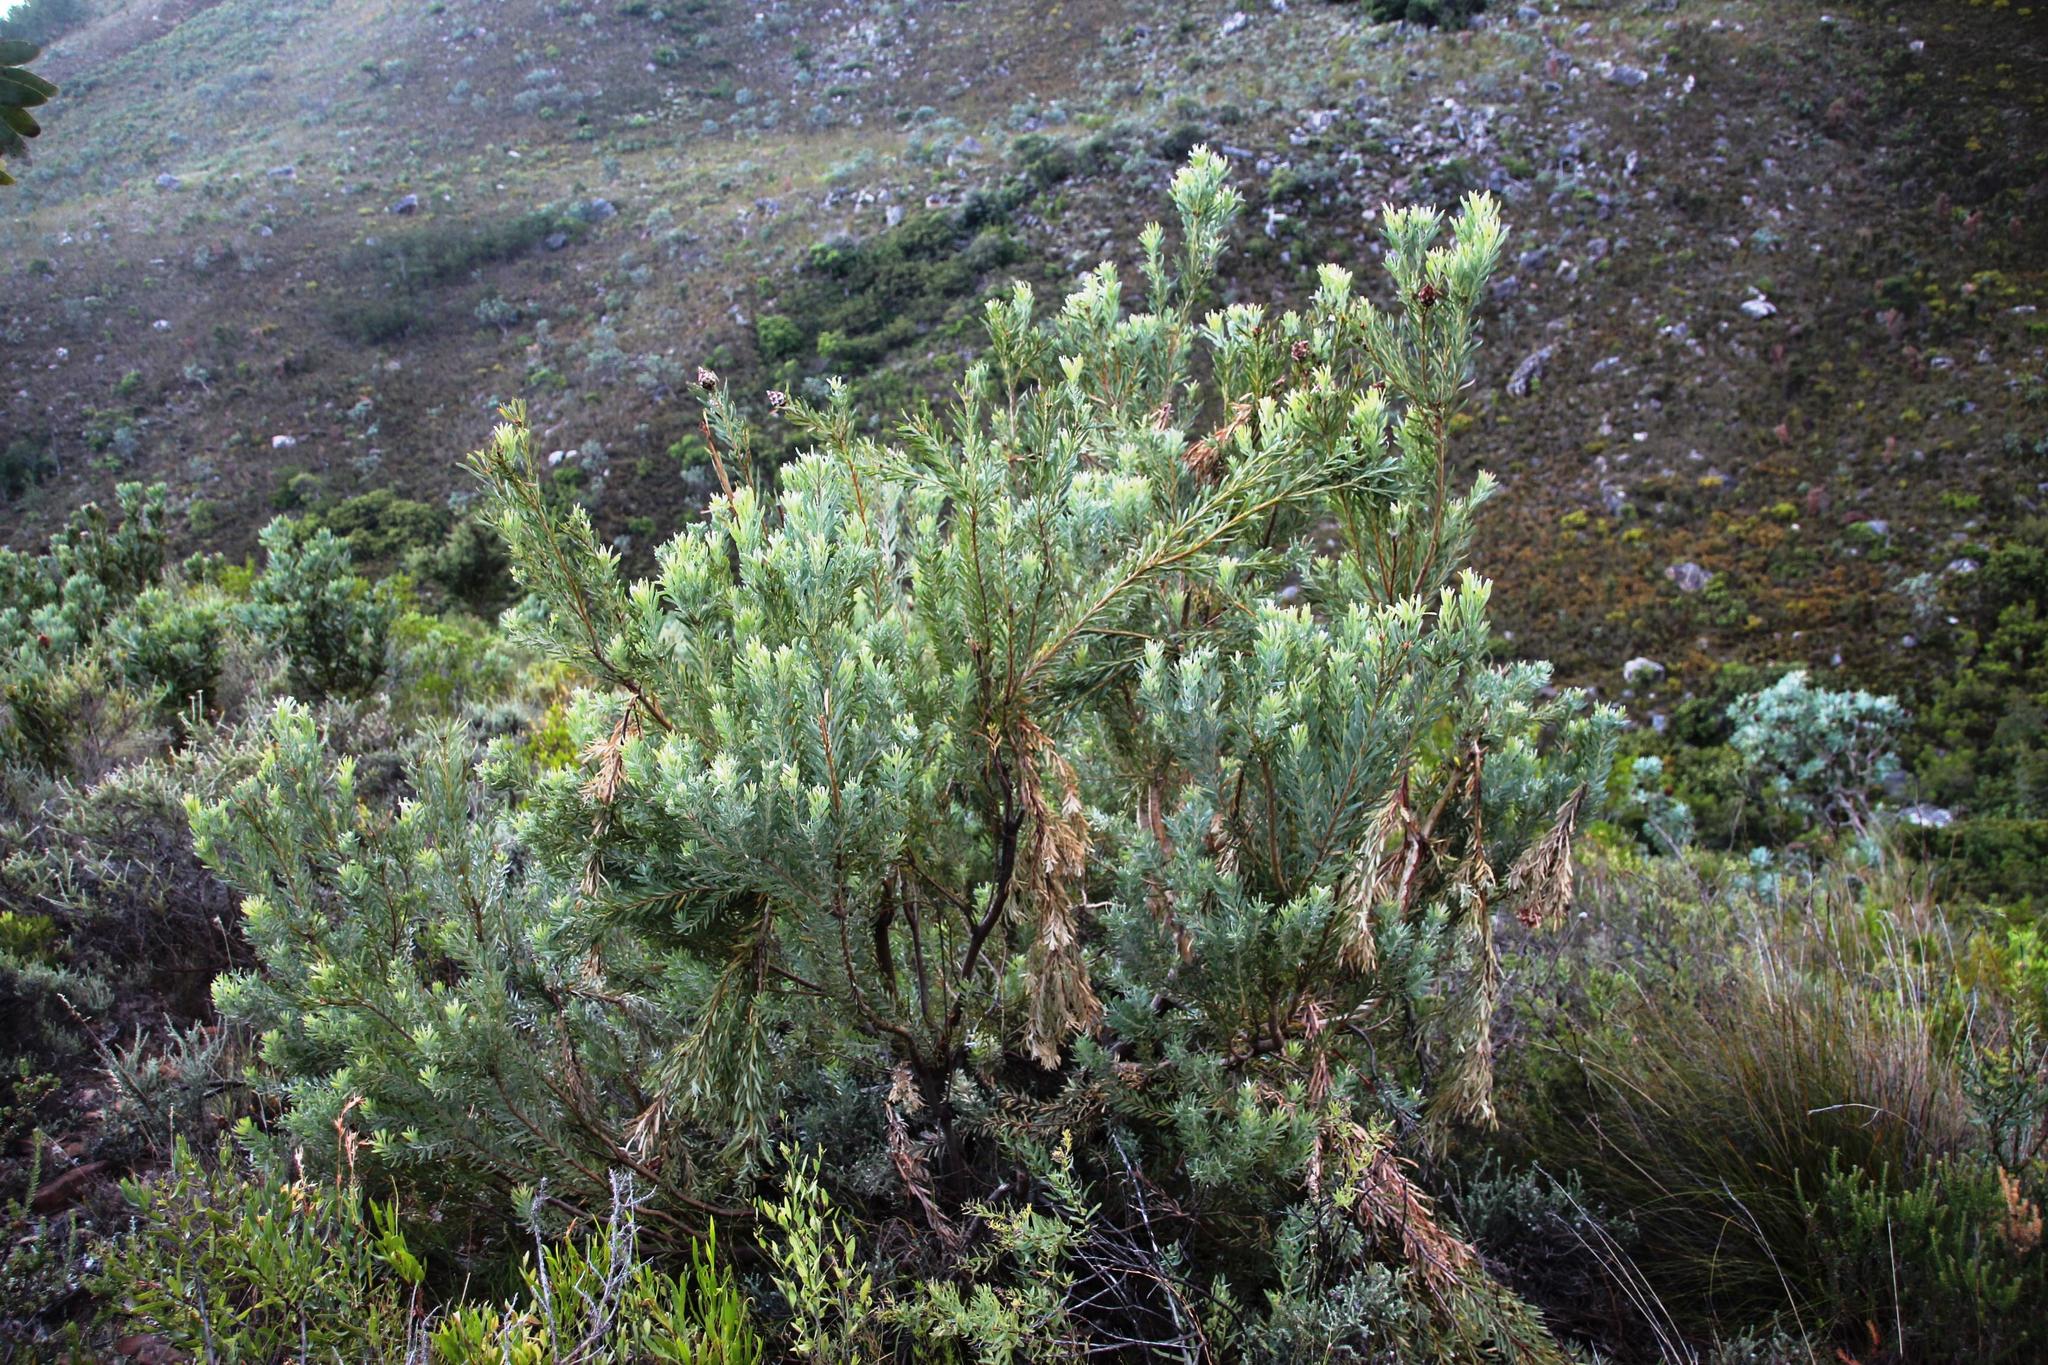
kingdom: Plantae
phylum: Tracheophyta
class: Magnoliopsida
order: Proteales
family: Proteaceae
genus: Leucadendron
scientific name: Leucadendron rubrum
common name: Spinning top
